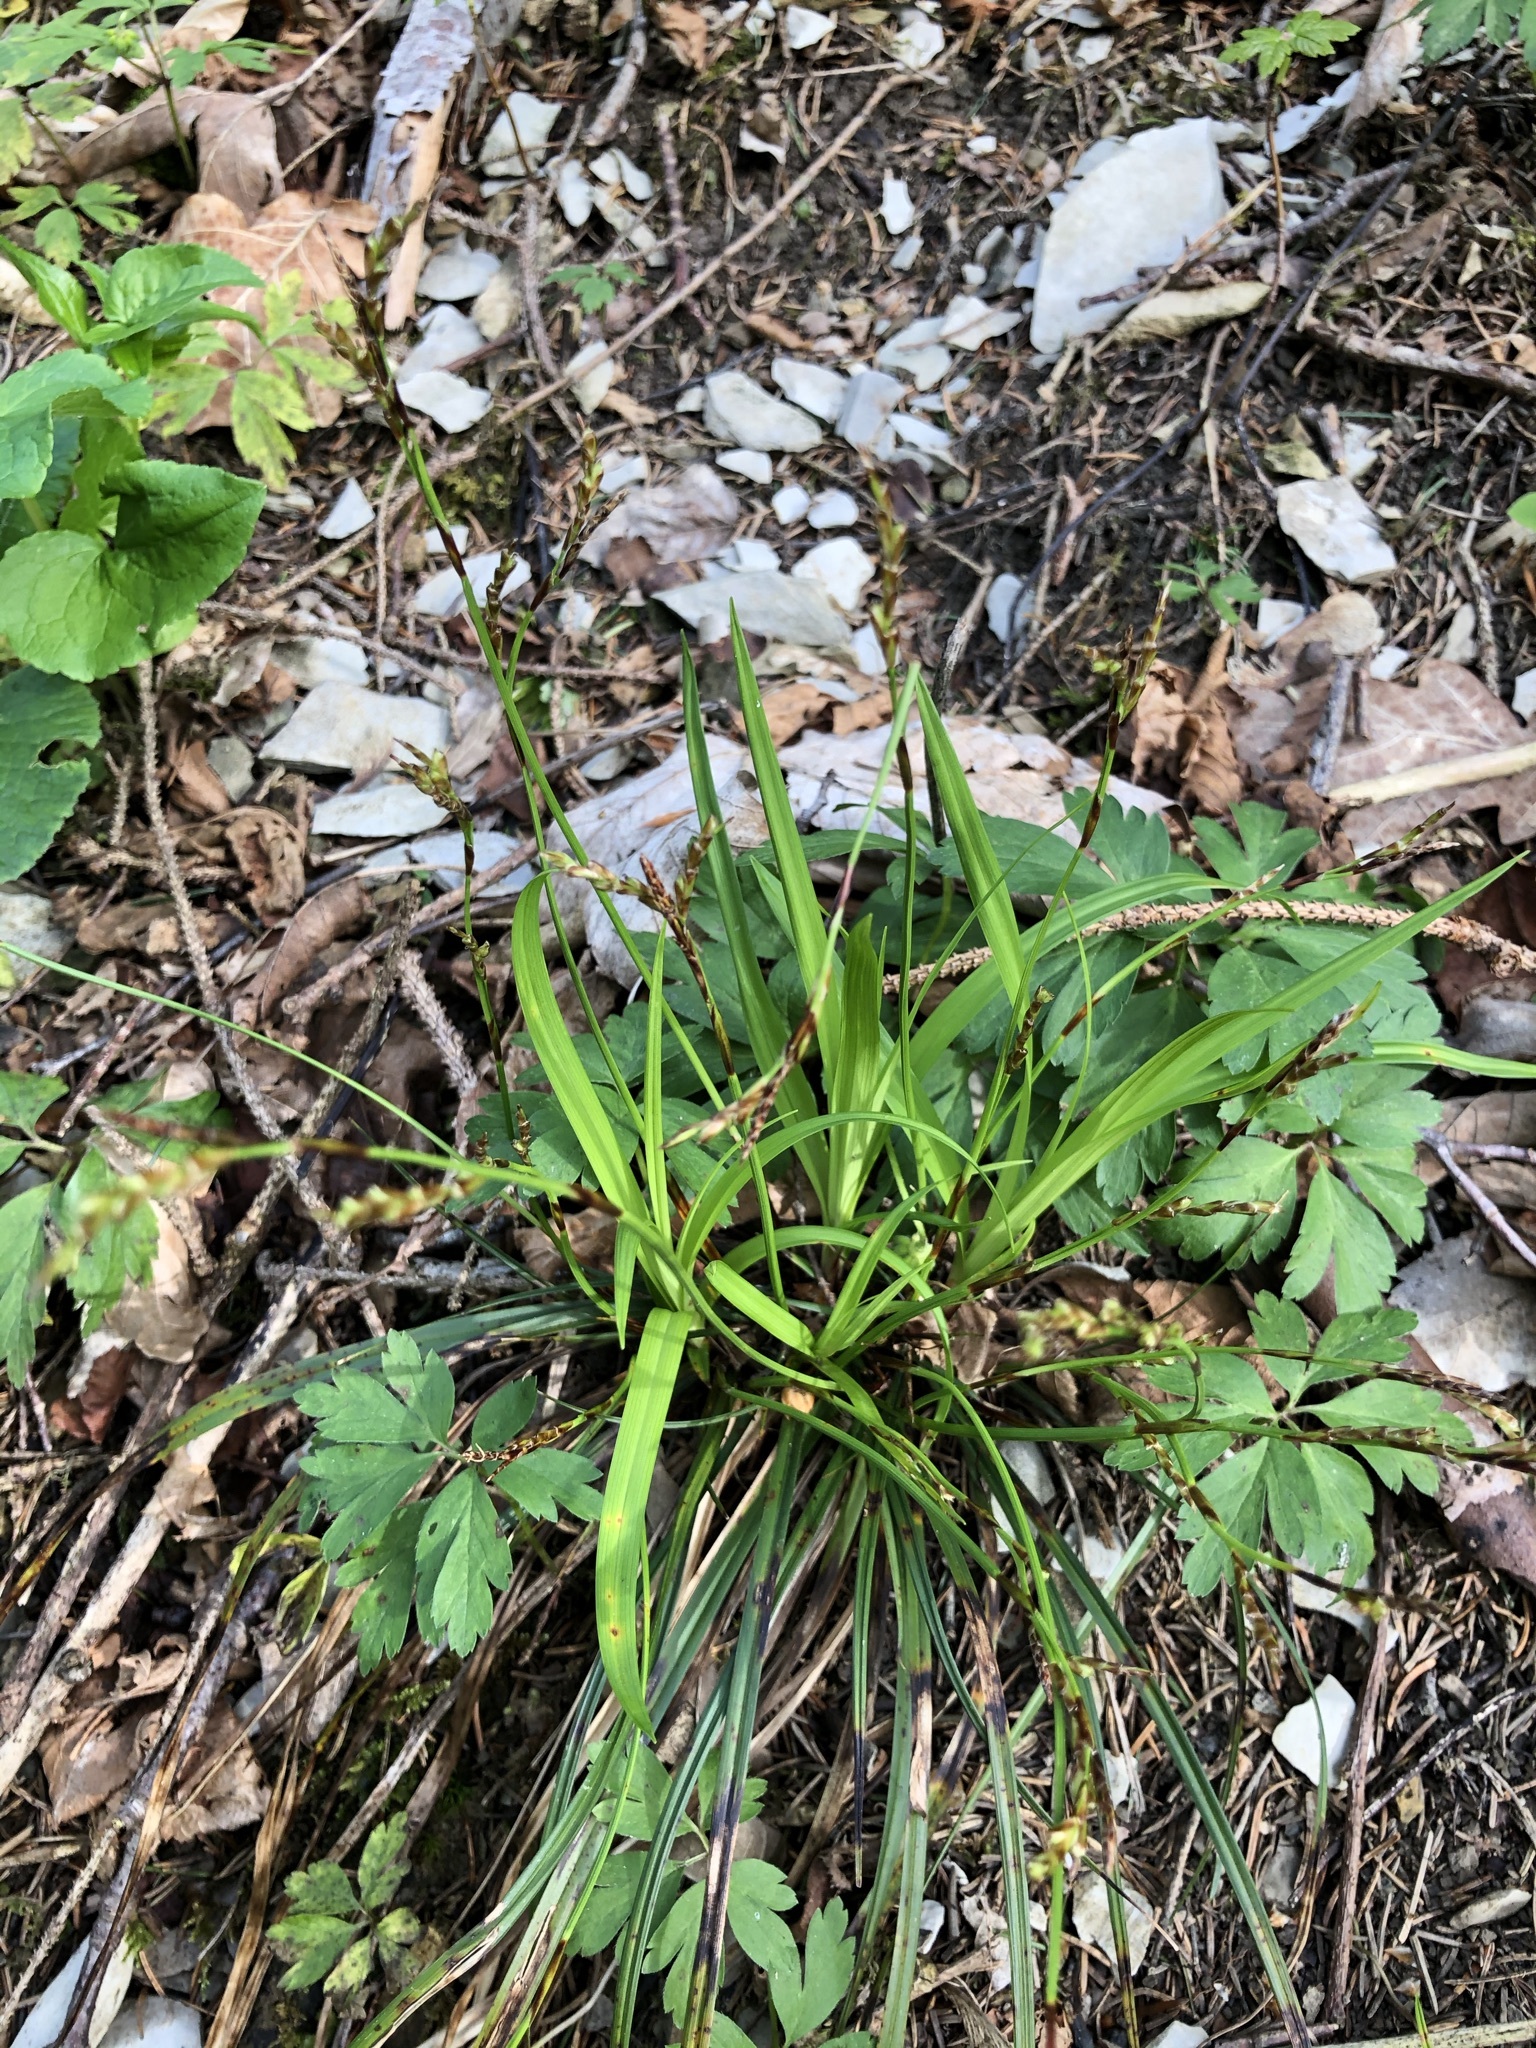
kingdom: Plantae
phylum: Tracheophyta
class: Liliopsida
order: Poales
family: Cyperaceae
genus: Carex
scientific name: Carex digitata
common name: Fingered sedge
